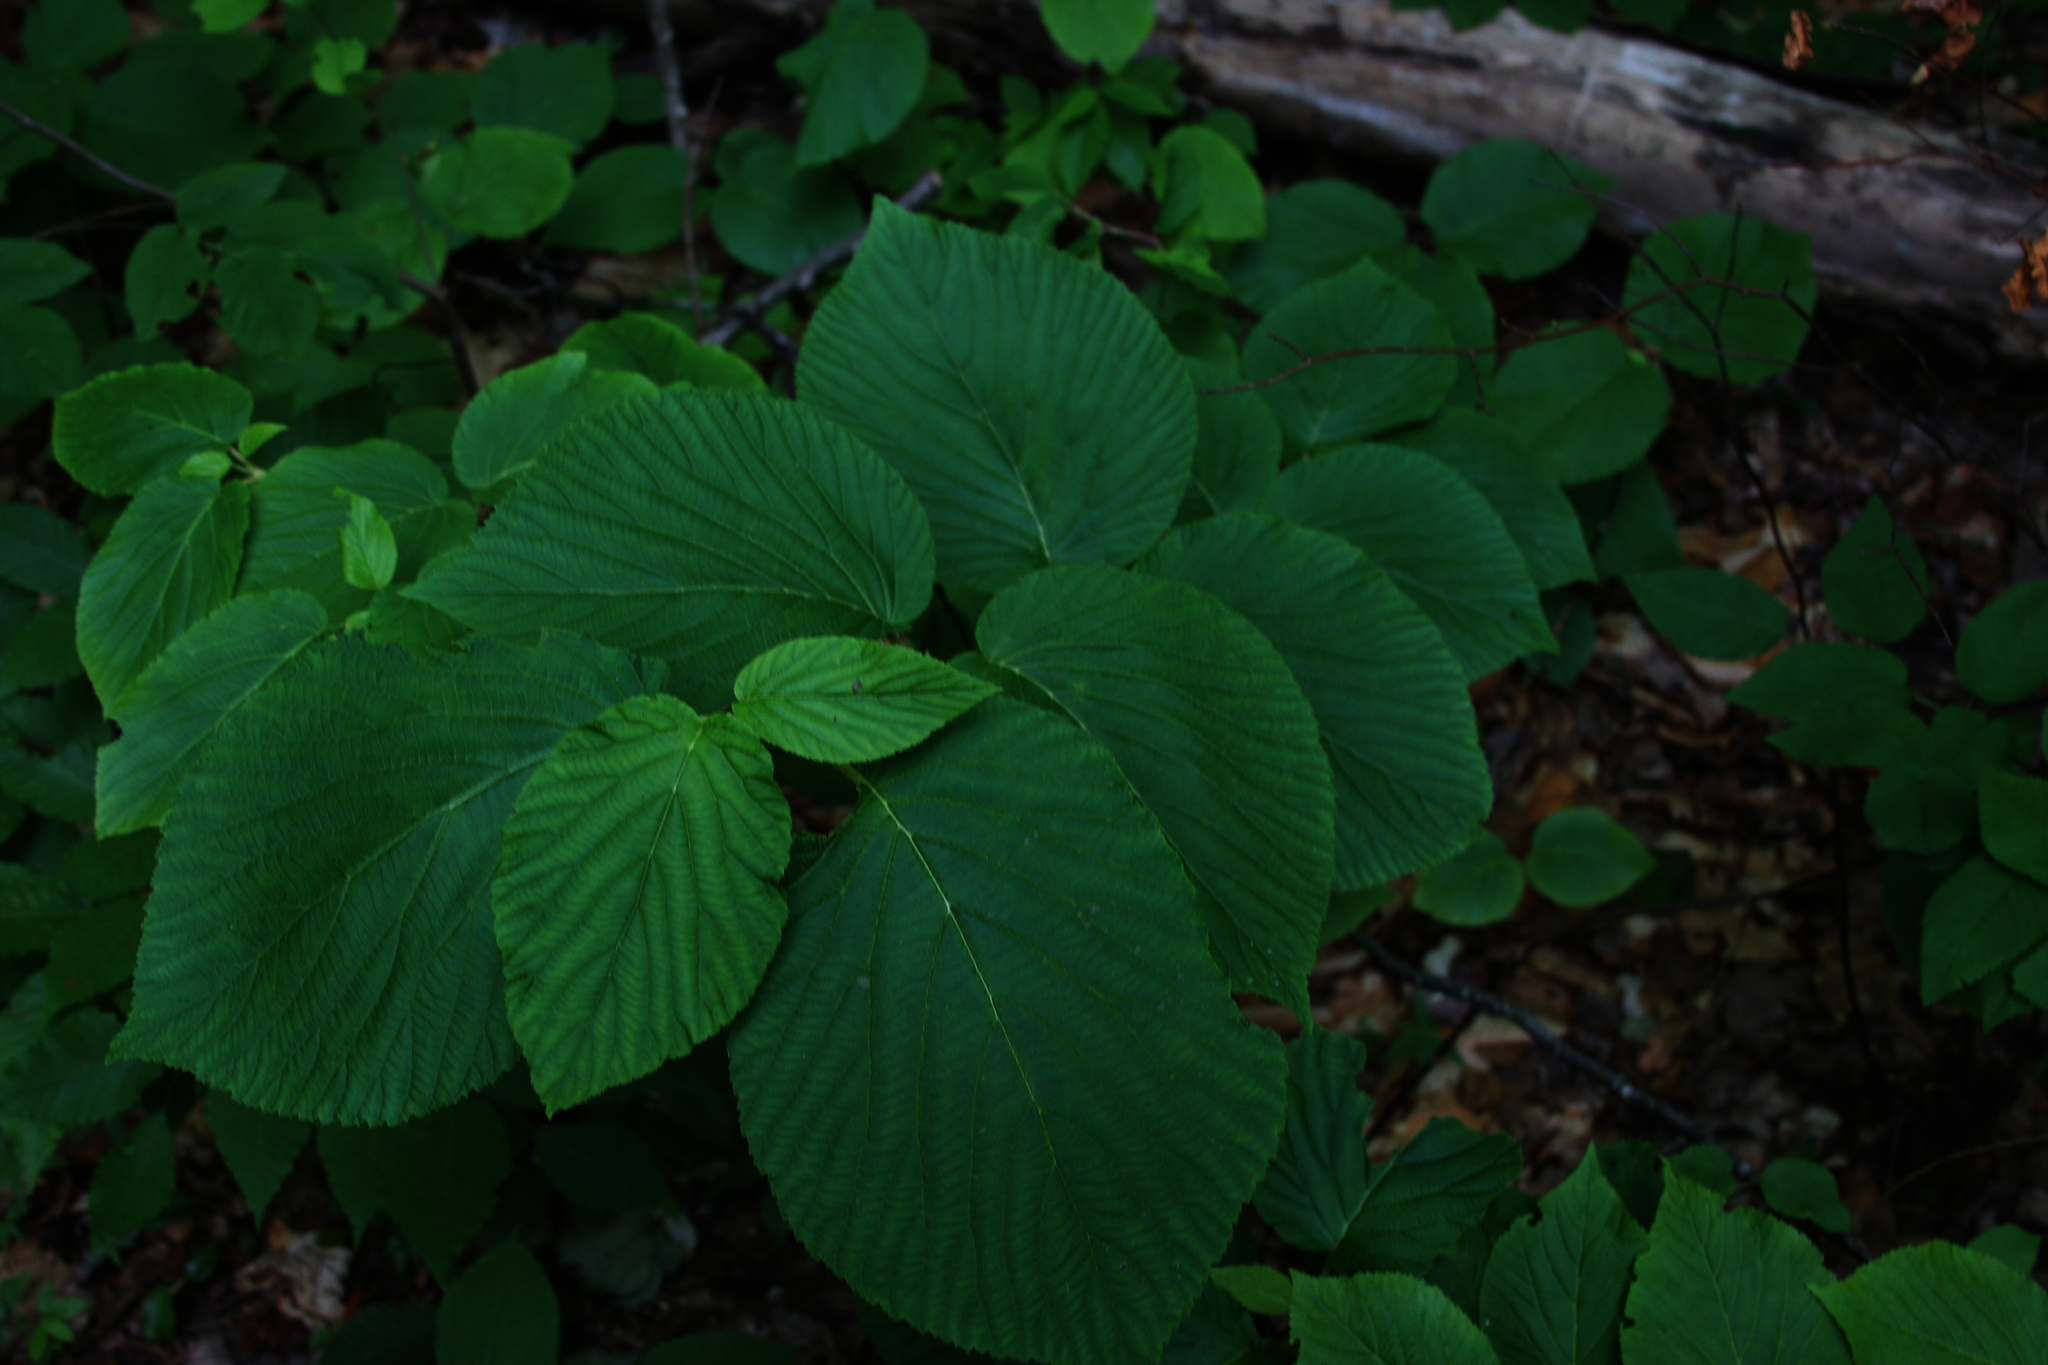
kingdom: Plantae
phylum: Tracheophyta
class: Magnoliopsida
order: Dipsacales
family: Viburnaceae
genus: Viburnum
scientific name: Viburnum lantanoides
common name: Hobblebush
